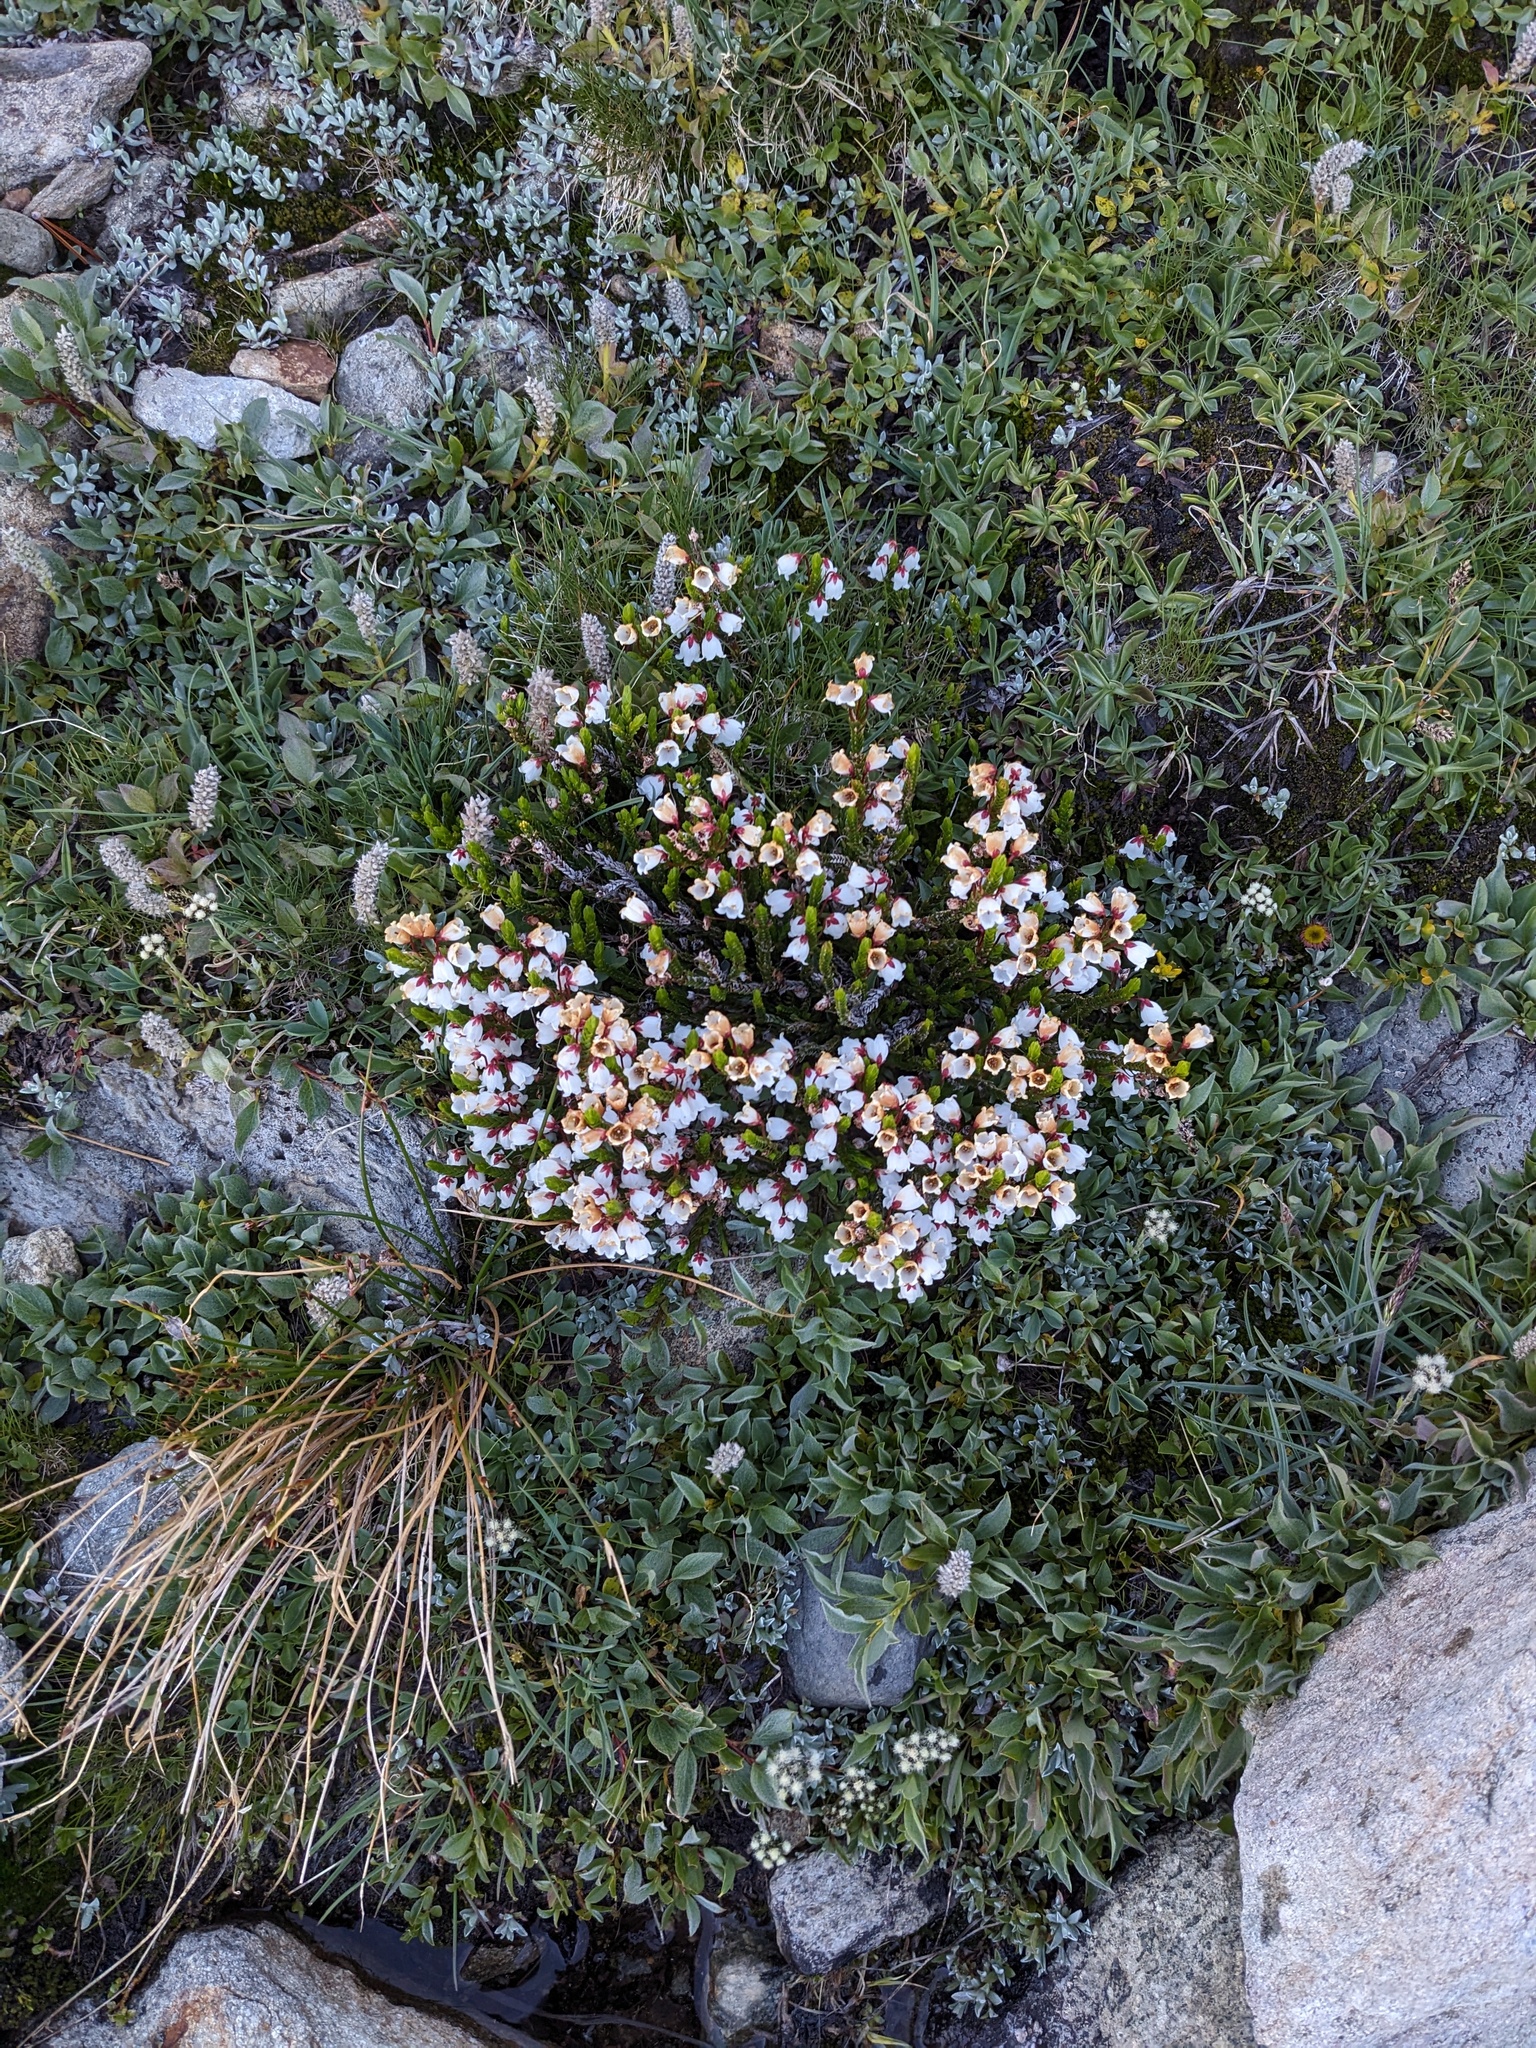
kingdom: Plantae
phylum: Tracheophyta
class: Magnoliopsida
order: Ericales
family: Ericaceae
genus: Cassiope
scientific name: Cassiope mertensiana
